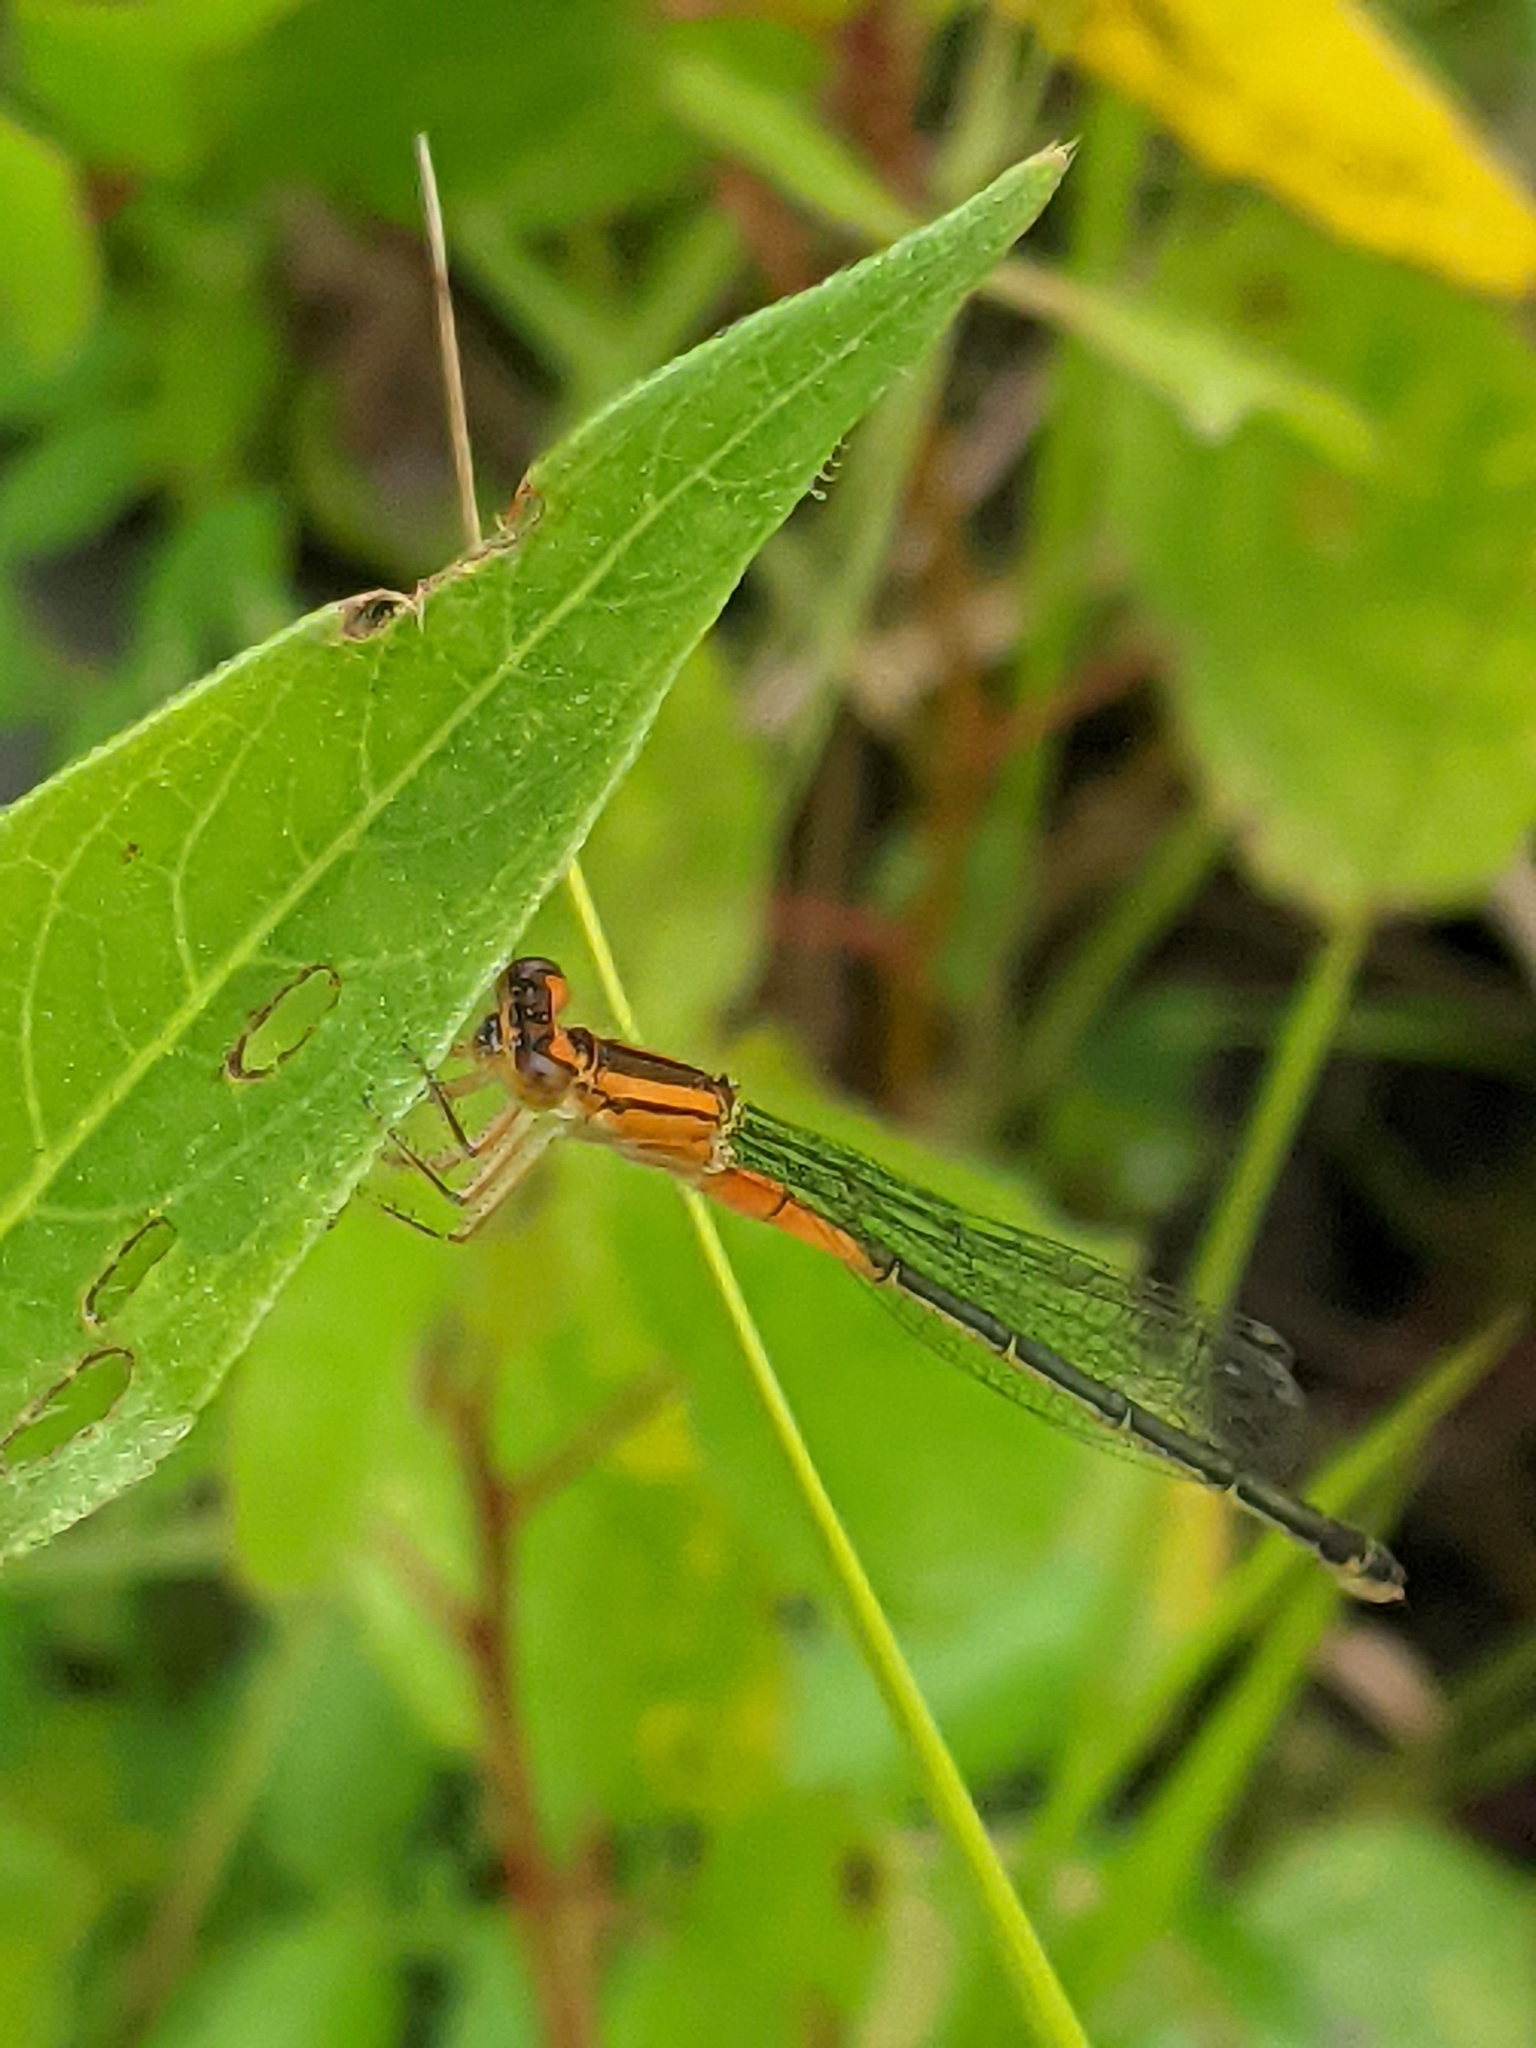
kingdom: Animalia
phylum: Arthropoda
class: Insecta
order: Odonata
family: Coenagrionidae
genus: Ischnura
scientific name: Ischnura verticalis
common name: Eastern forktail
